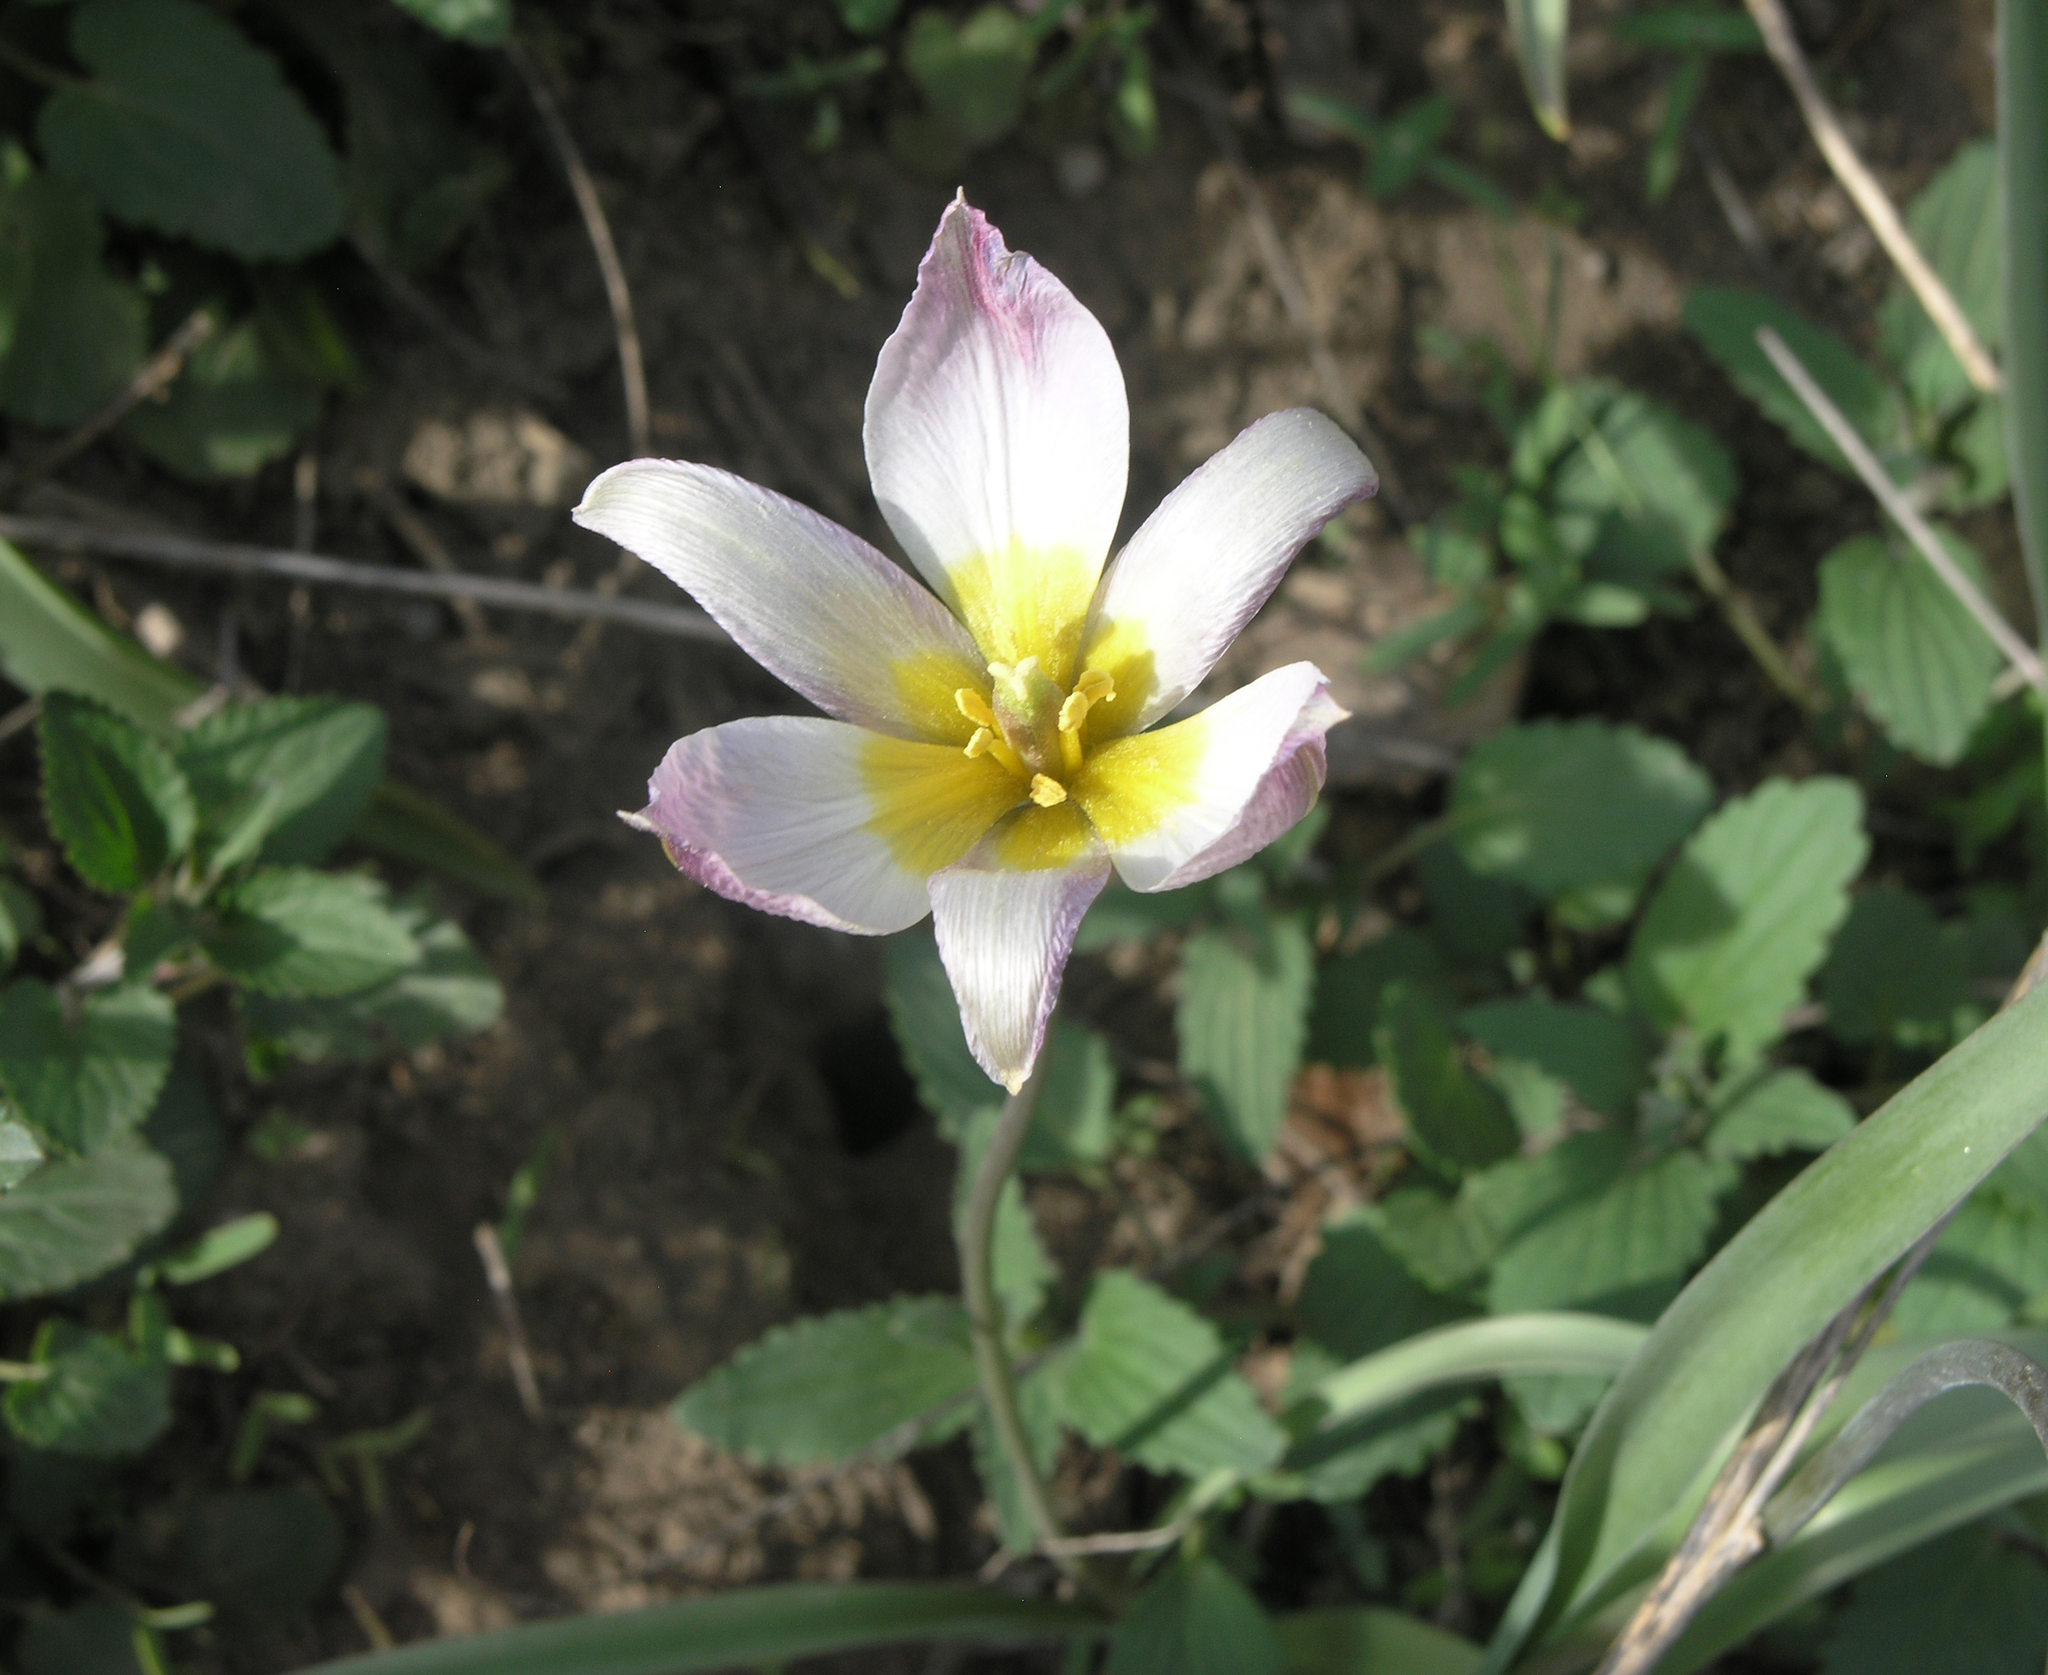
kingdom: Plantae
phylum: Tracheophyta
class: Liliopsida
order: Liliales
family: Liliaceae
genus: Tulipa
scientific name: Tulipa patens
